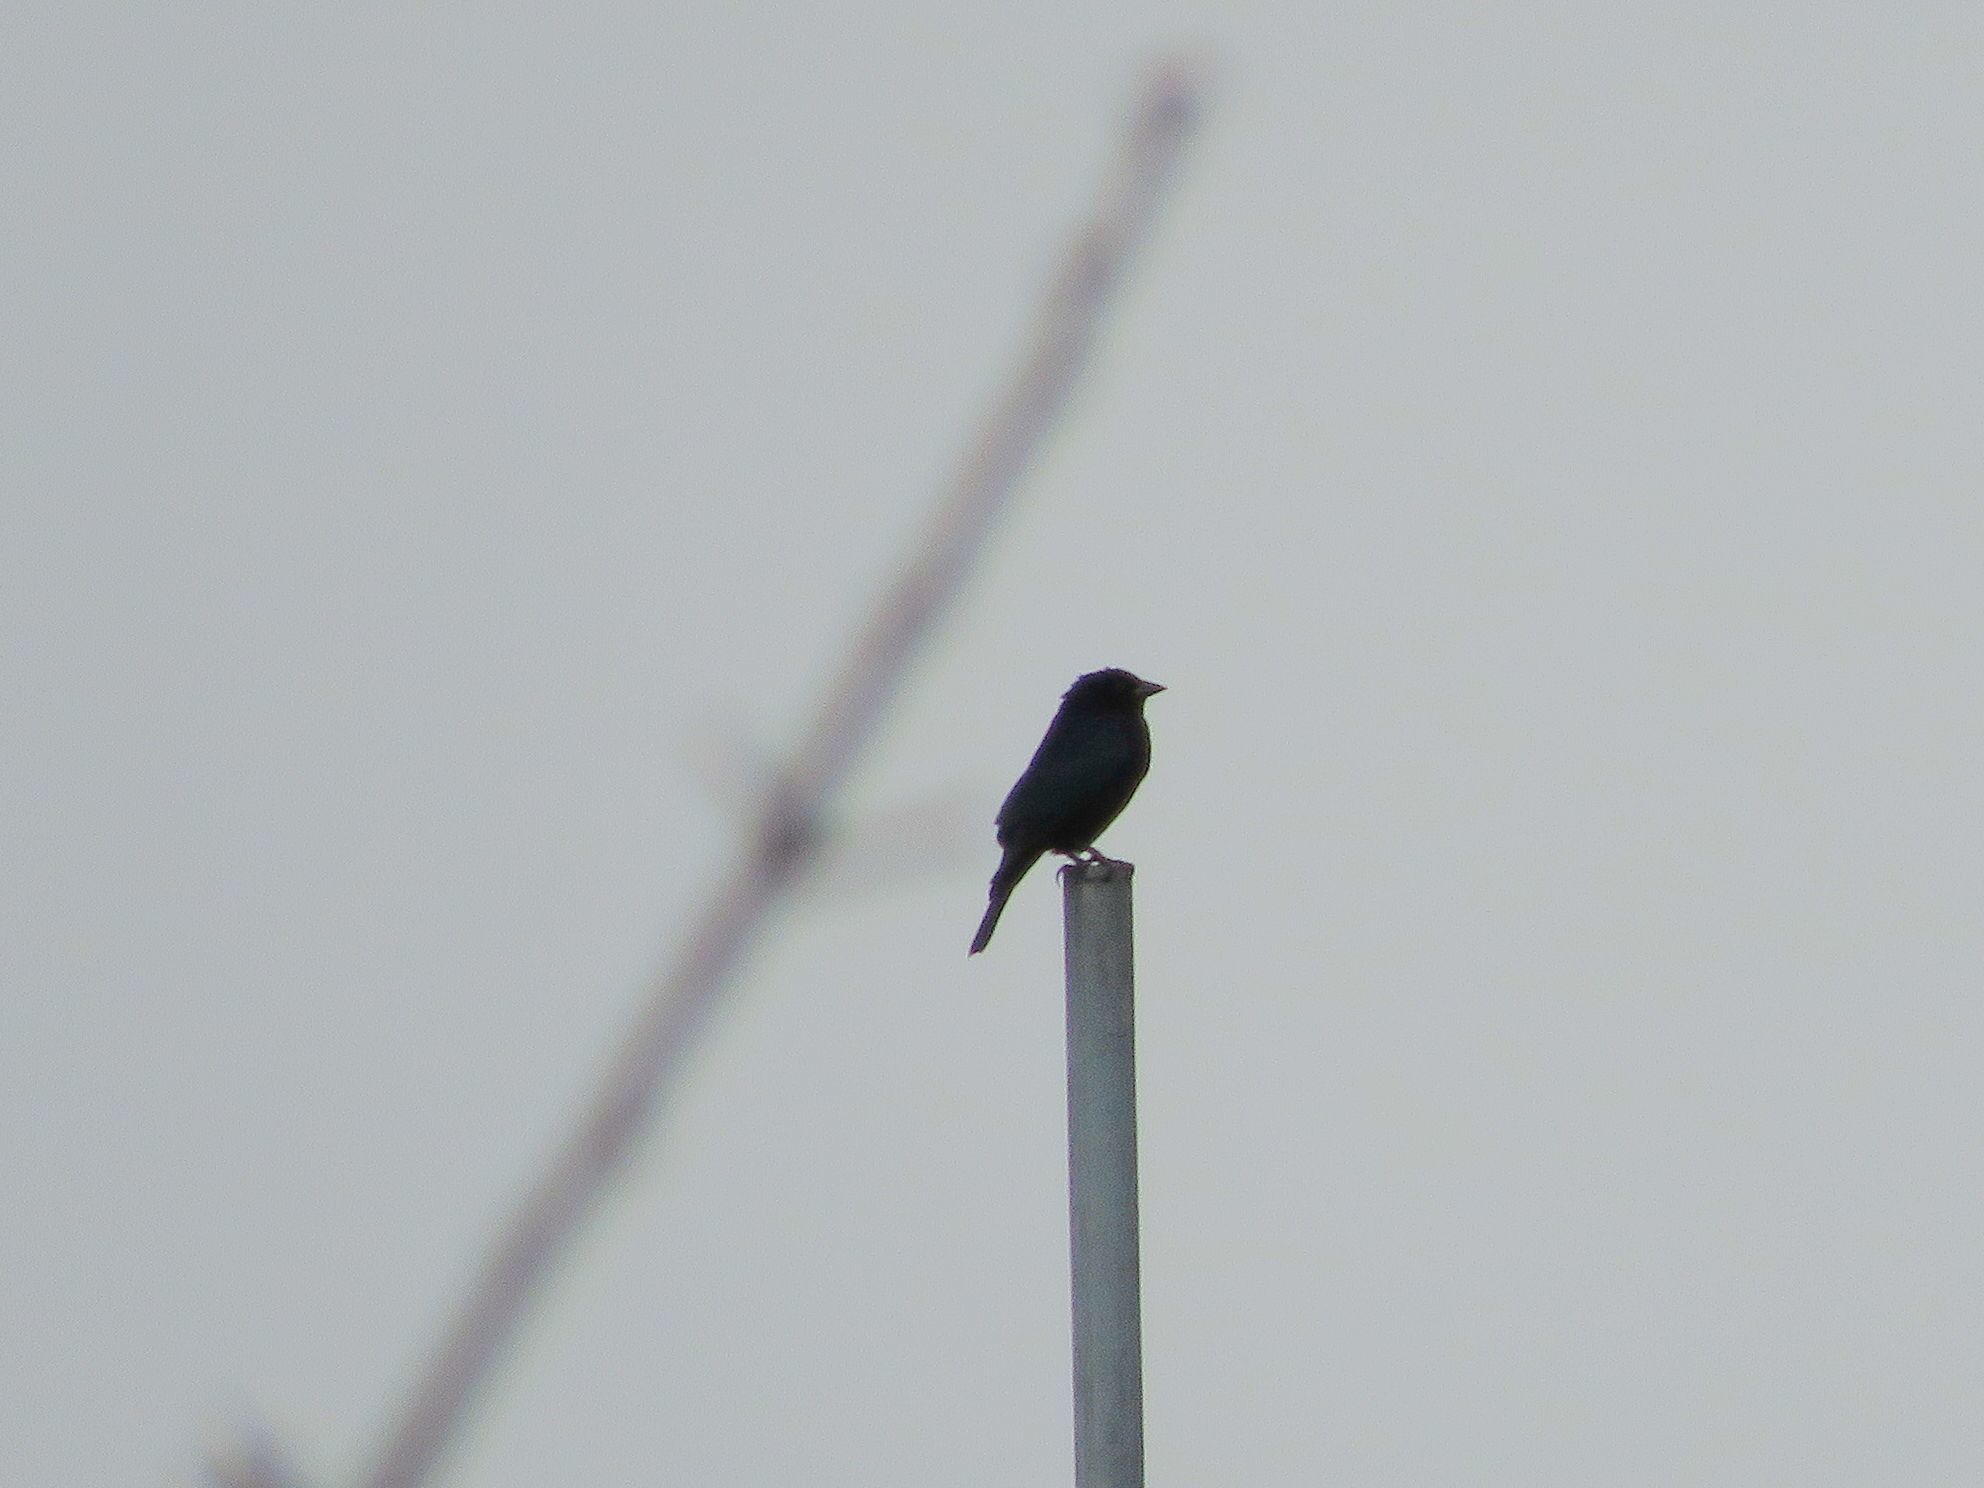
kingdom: Animalia
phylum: Chordata
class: Aves
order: Passeriformes
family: Icteridae
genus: Molothrus
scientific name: Molothrus bonariensis
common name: Shiny cowbird
